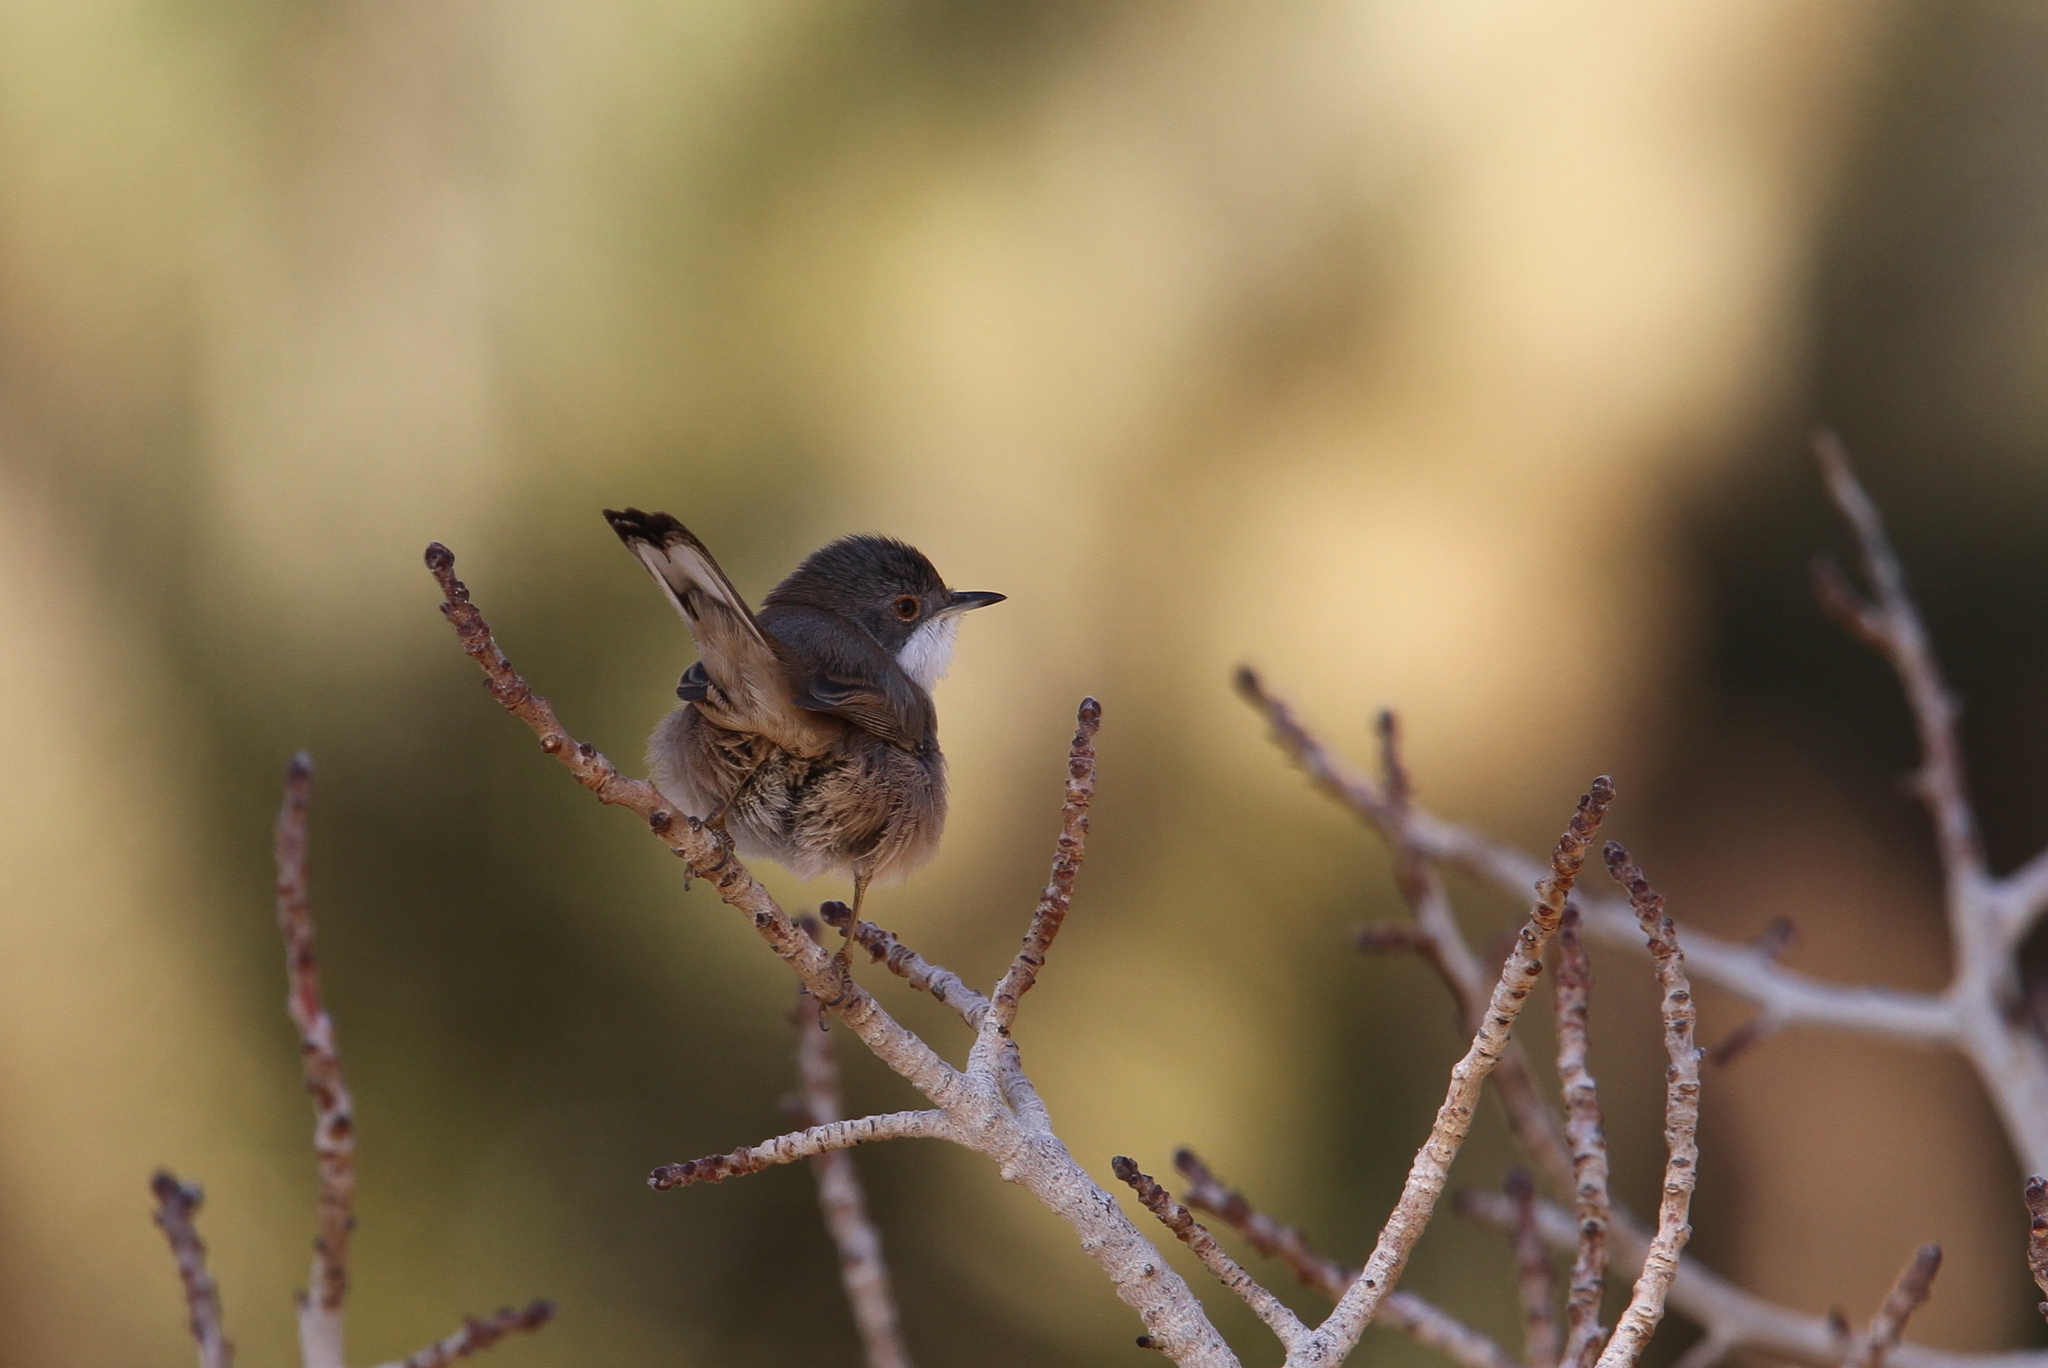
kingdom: Animalia
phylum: Chordata
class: Aves
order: Passeriformes
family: Sylviidae
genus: Curruca
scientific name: Curruca melanocephala
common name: Sardinian warbler
